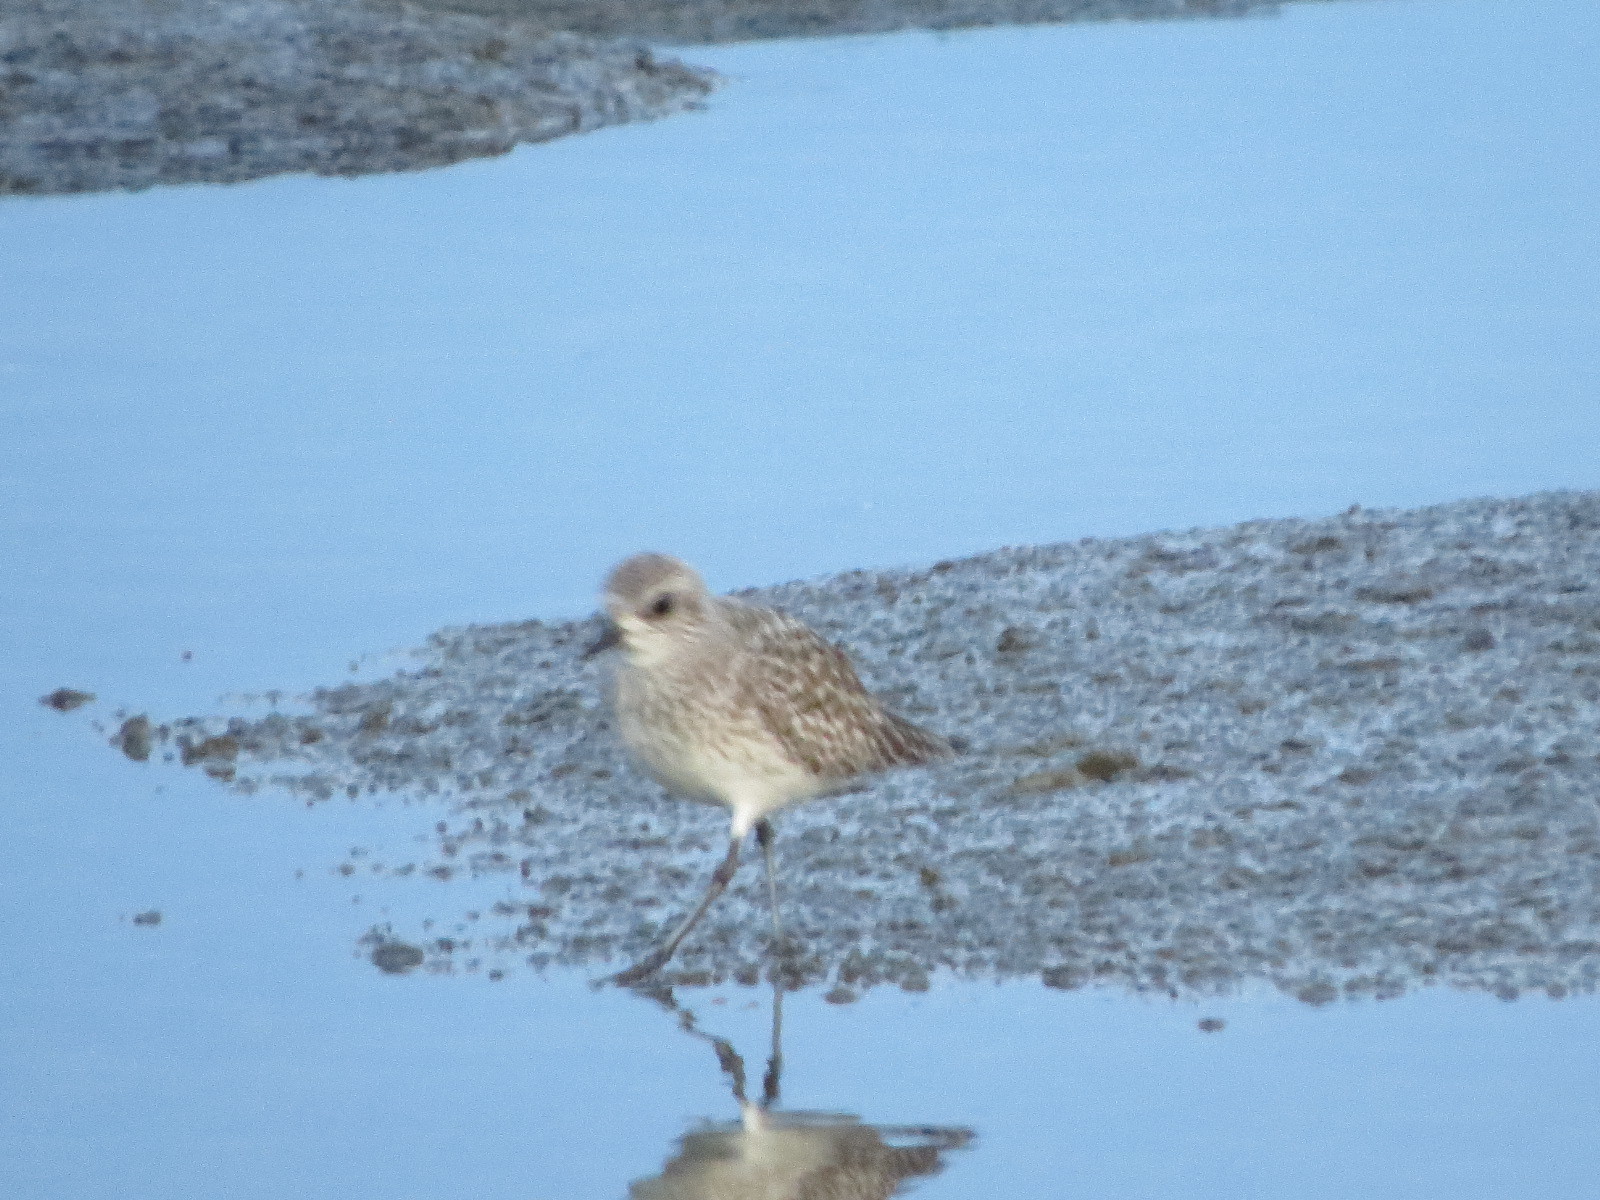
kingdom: Animalia
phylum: Chordata
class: Aves
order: Charadriiformes
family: Charadriidae
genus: Pluvialis
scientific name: Pluvialis squatarola
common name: Grey plover
